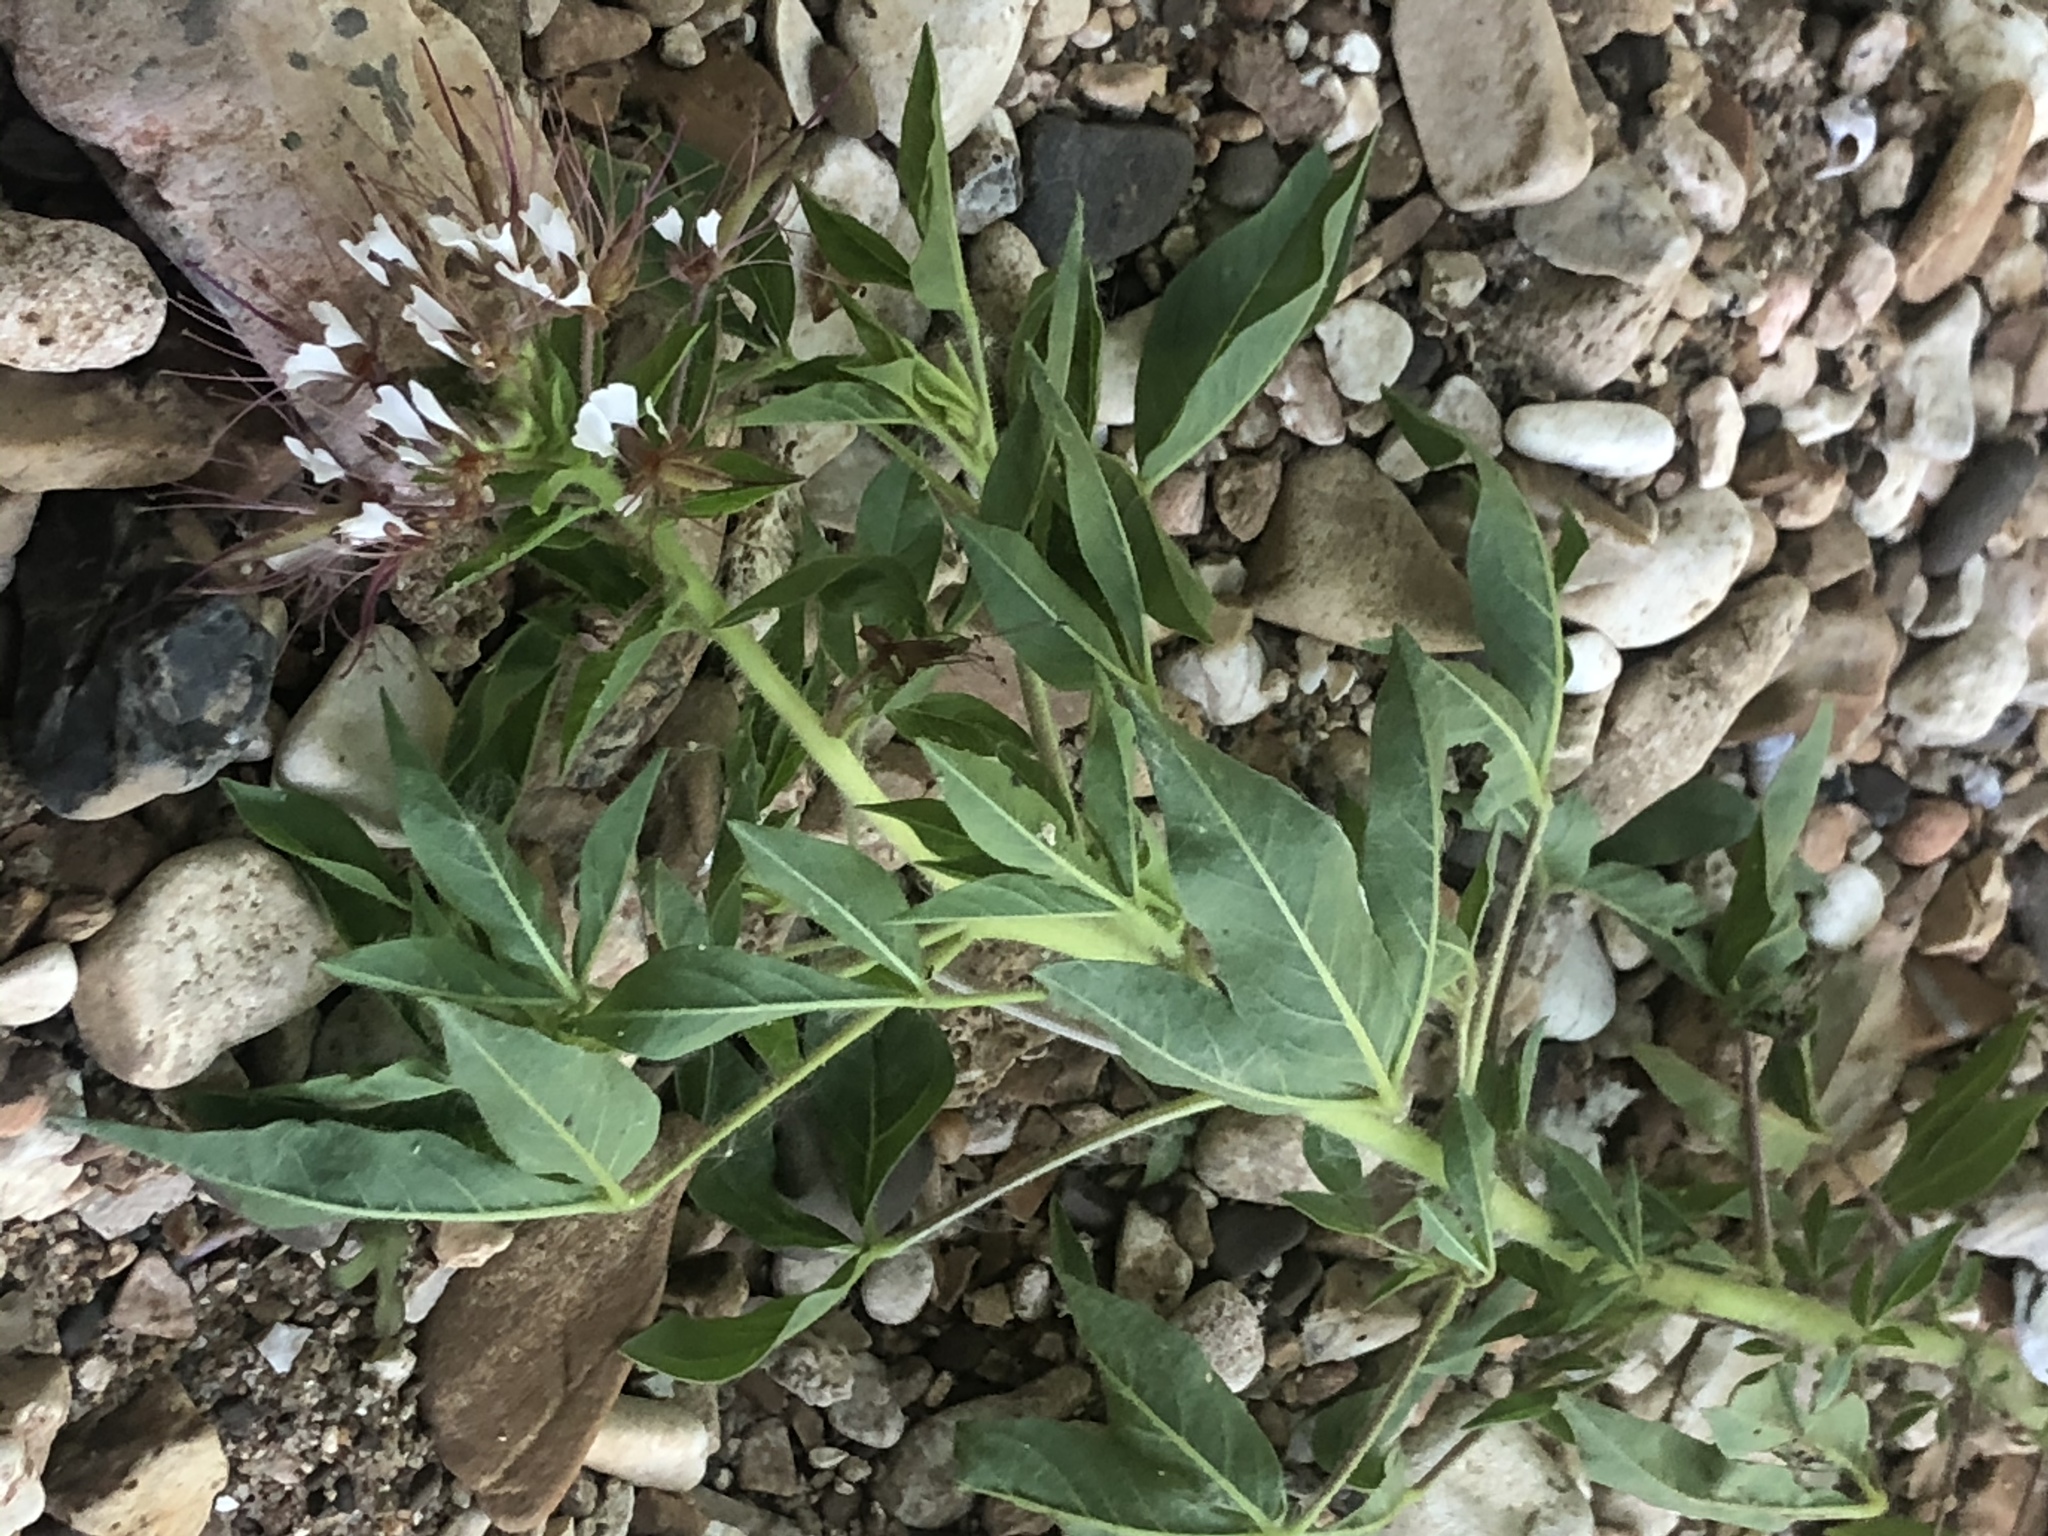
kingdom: Plantae
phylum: Tracheophyta
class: Magnoliopsida
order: Brassicales
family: Cleomaceae
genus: Polanisia
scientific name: Polanisia trachysperma
